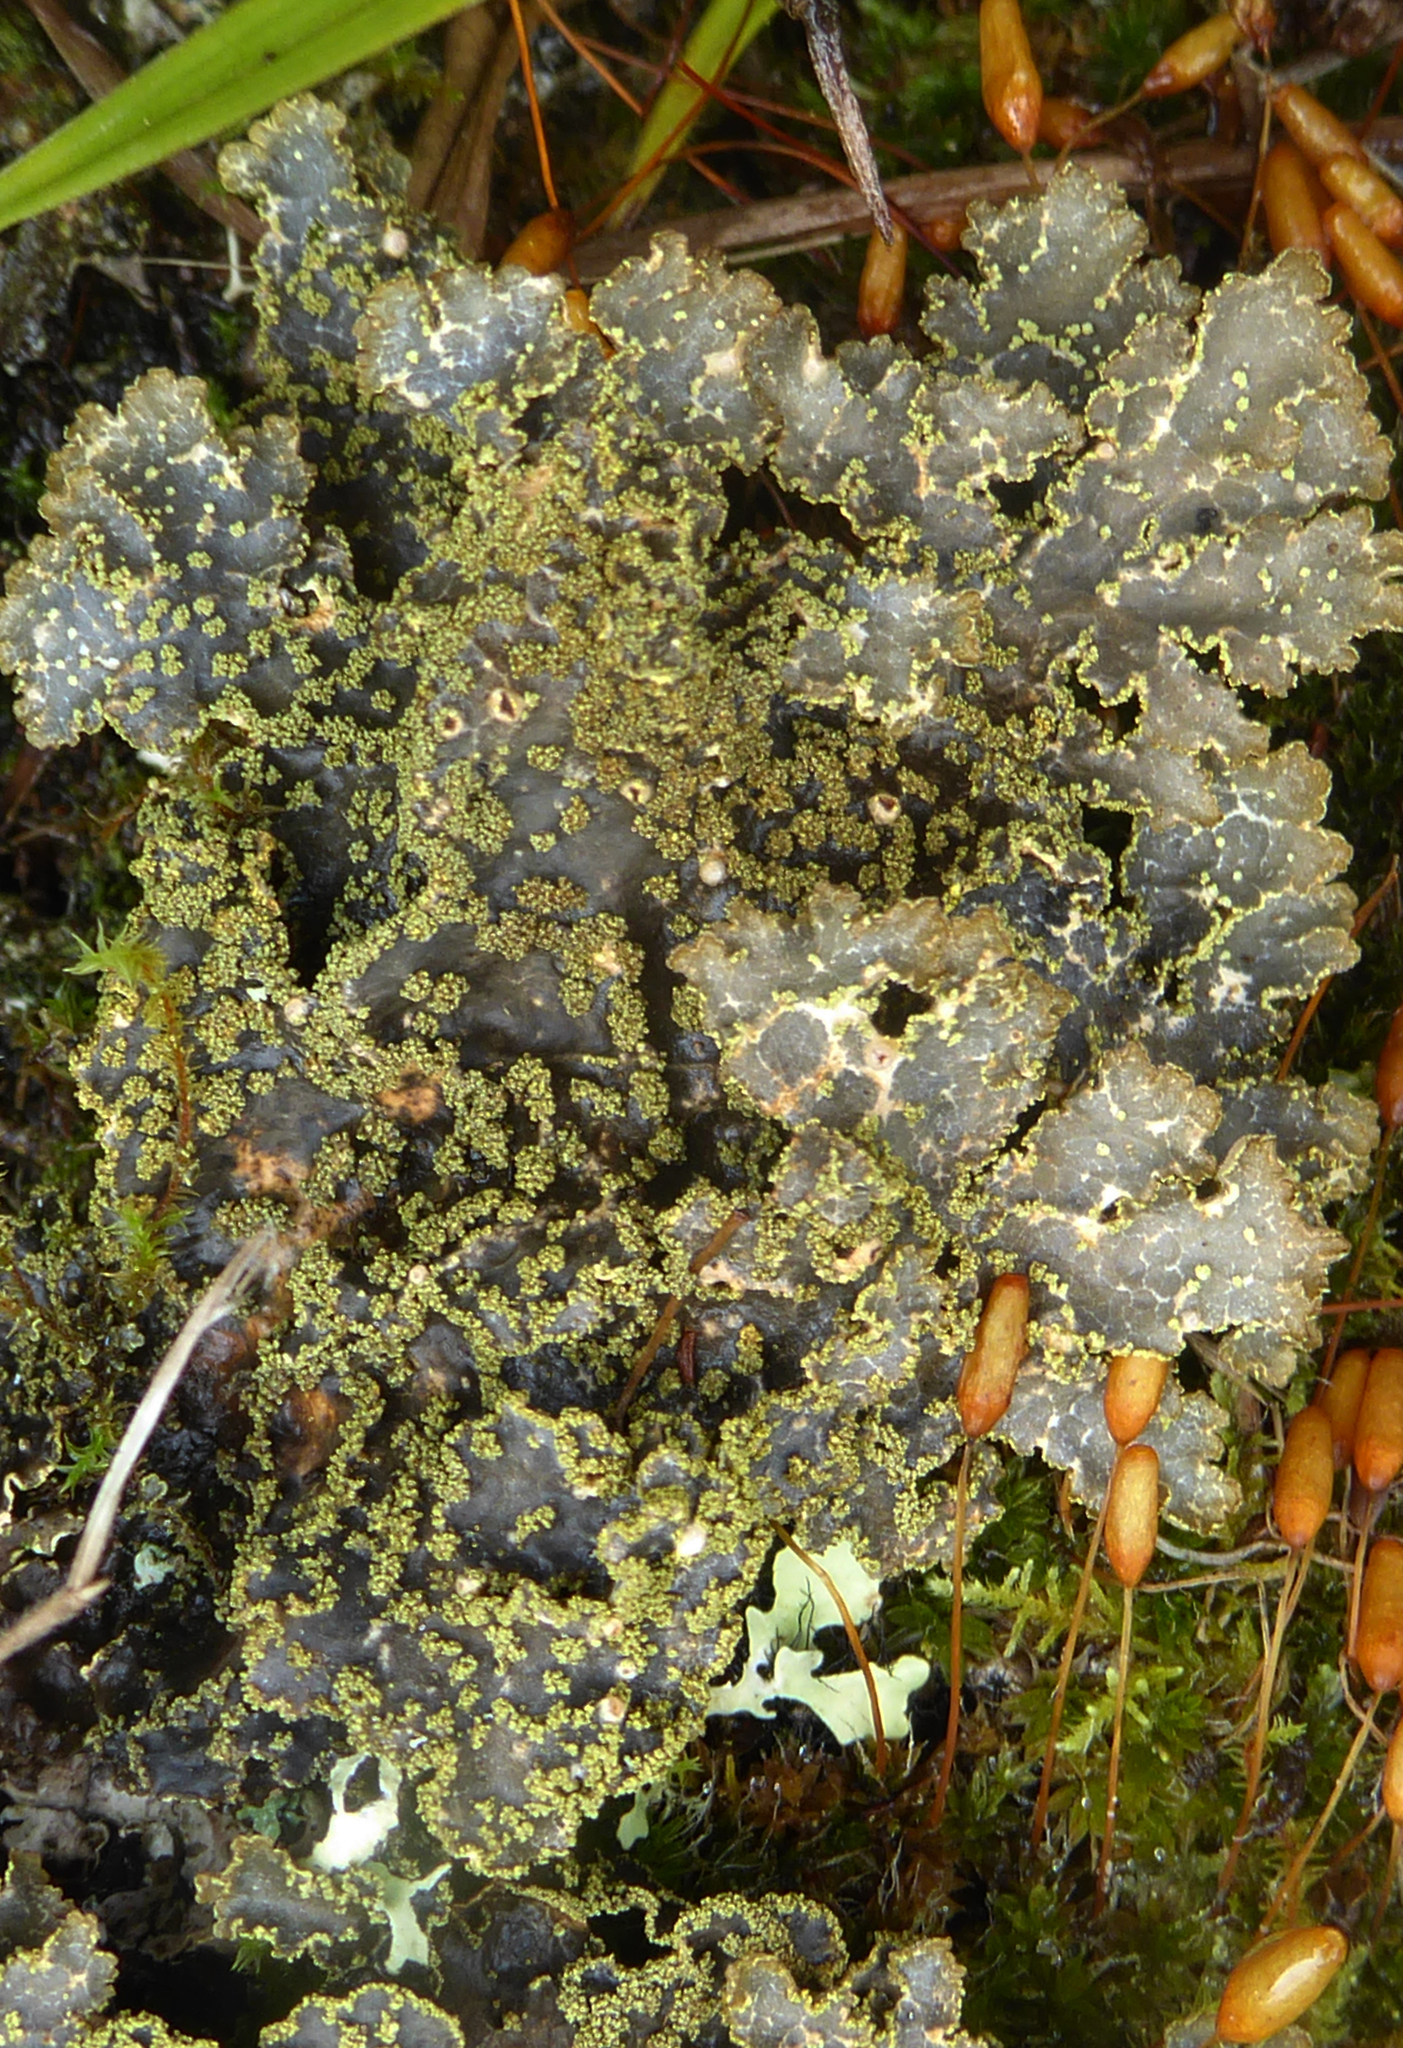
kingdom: Fungi
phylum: Ascomycota
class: Lecanoromycetes
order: Peltigerales
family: Lobariaceae
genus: Pseudocyphellaria
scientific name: Pseudocyphellaria crocata
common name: Golden specklebelly
